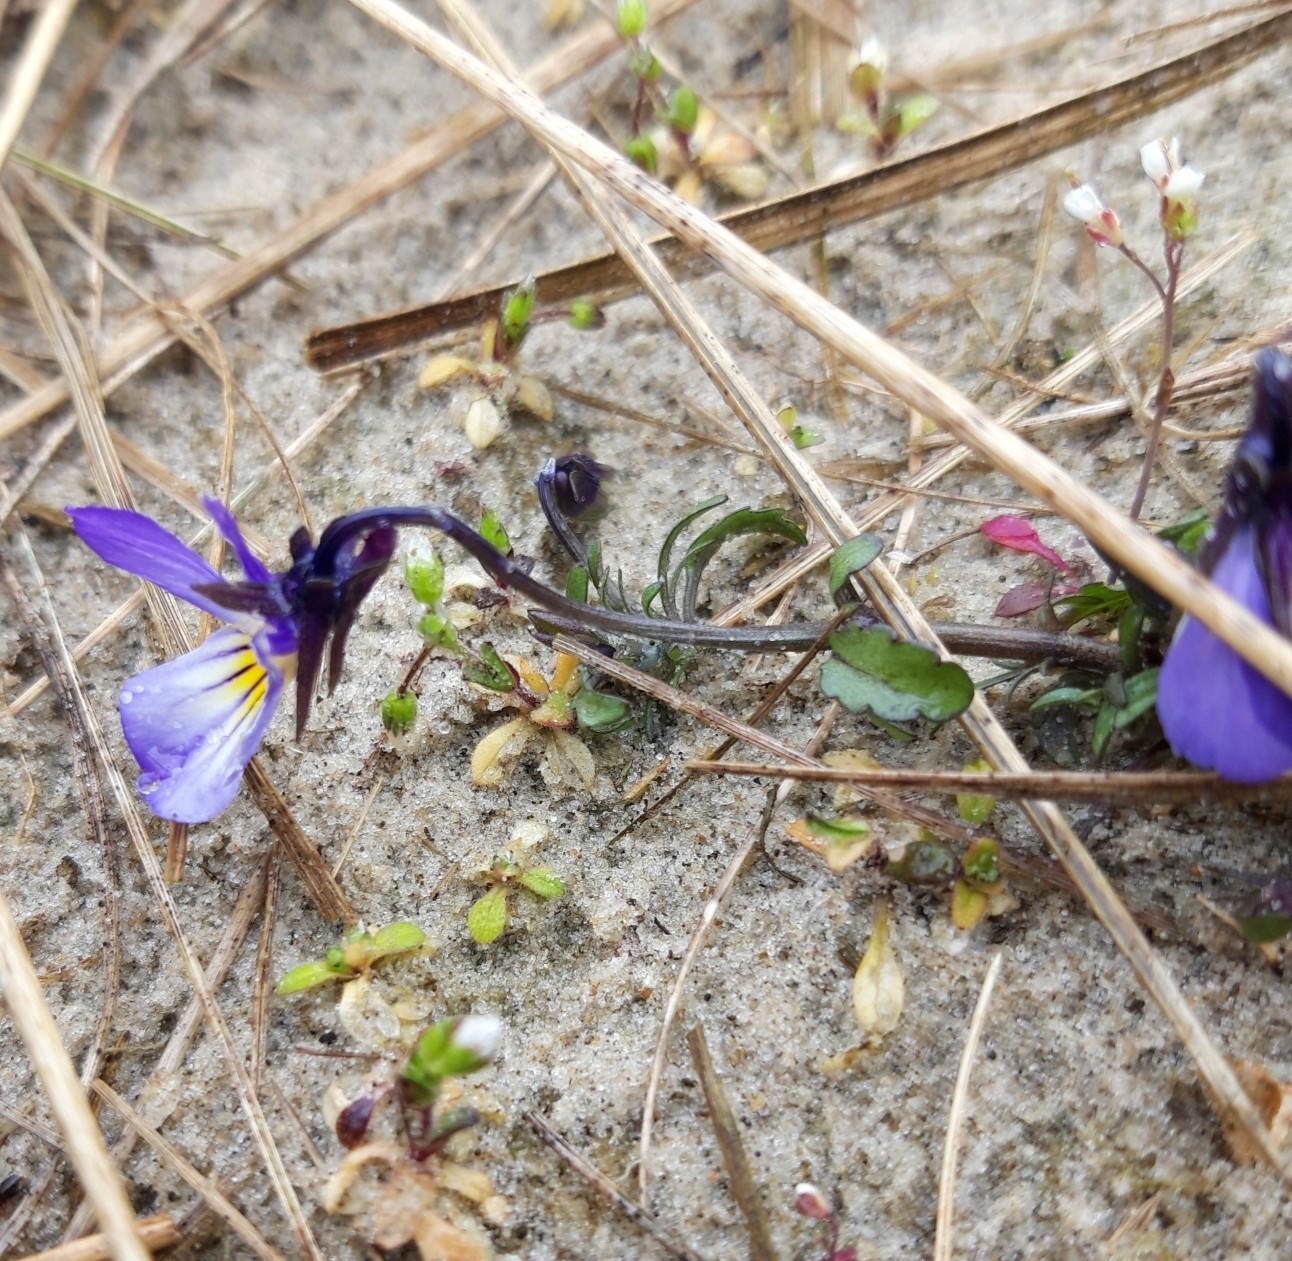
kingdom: Plantae
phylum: Tracheophyta
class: Magnoliopsida
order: Malpighiales
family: Violaceae
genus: Viola
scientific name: Viola tricolor
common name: Pansy
